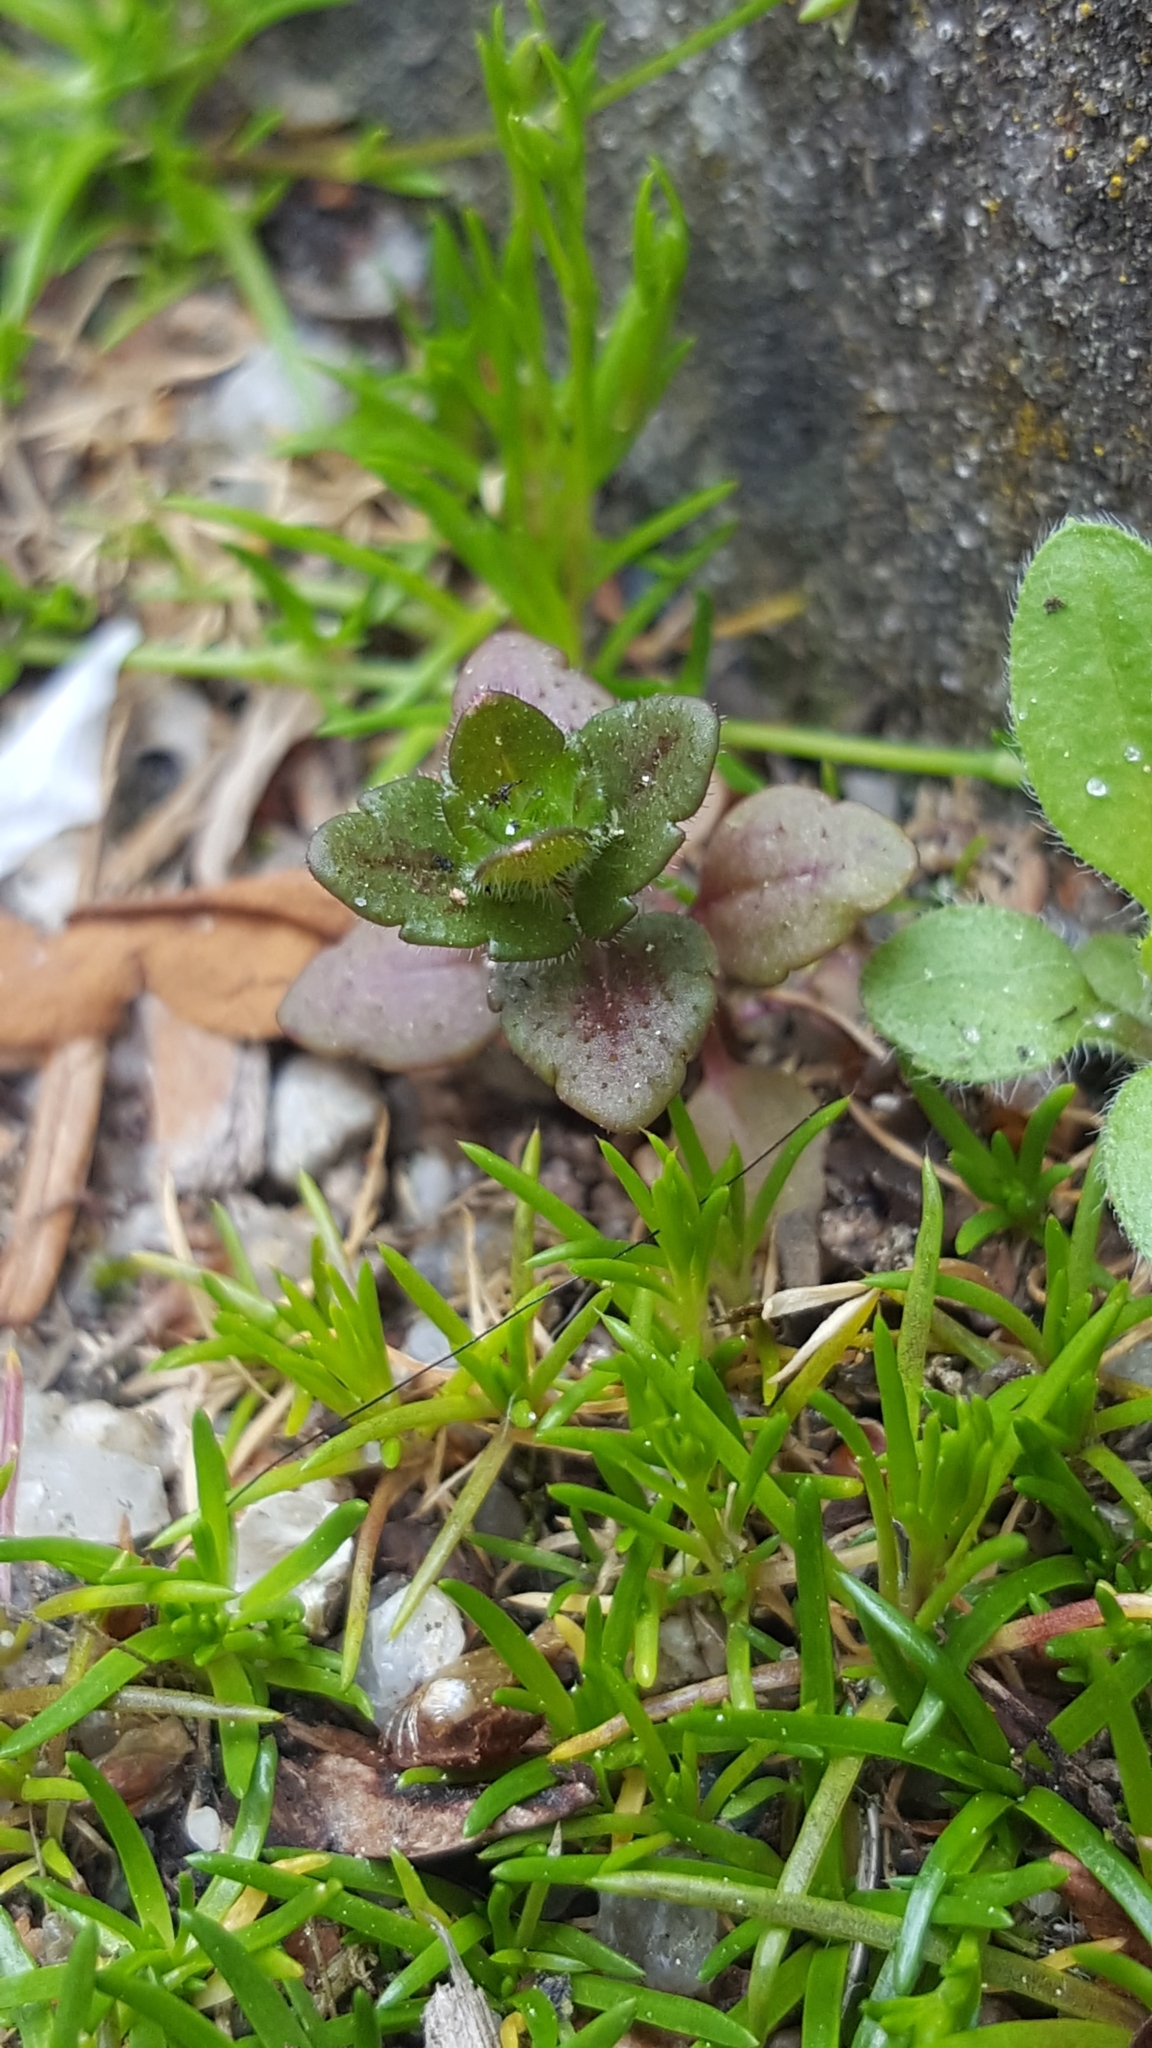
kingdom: Plantae
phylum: Tracheophyta
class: Magnoliopsida
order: Lamiales
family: Plantaginaceae
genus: Veronica
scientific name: Veronica arvensis
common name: Corn speedwell
